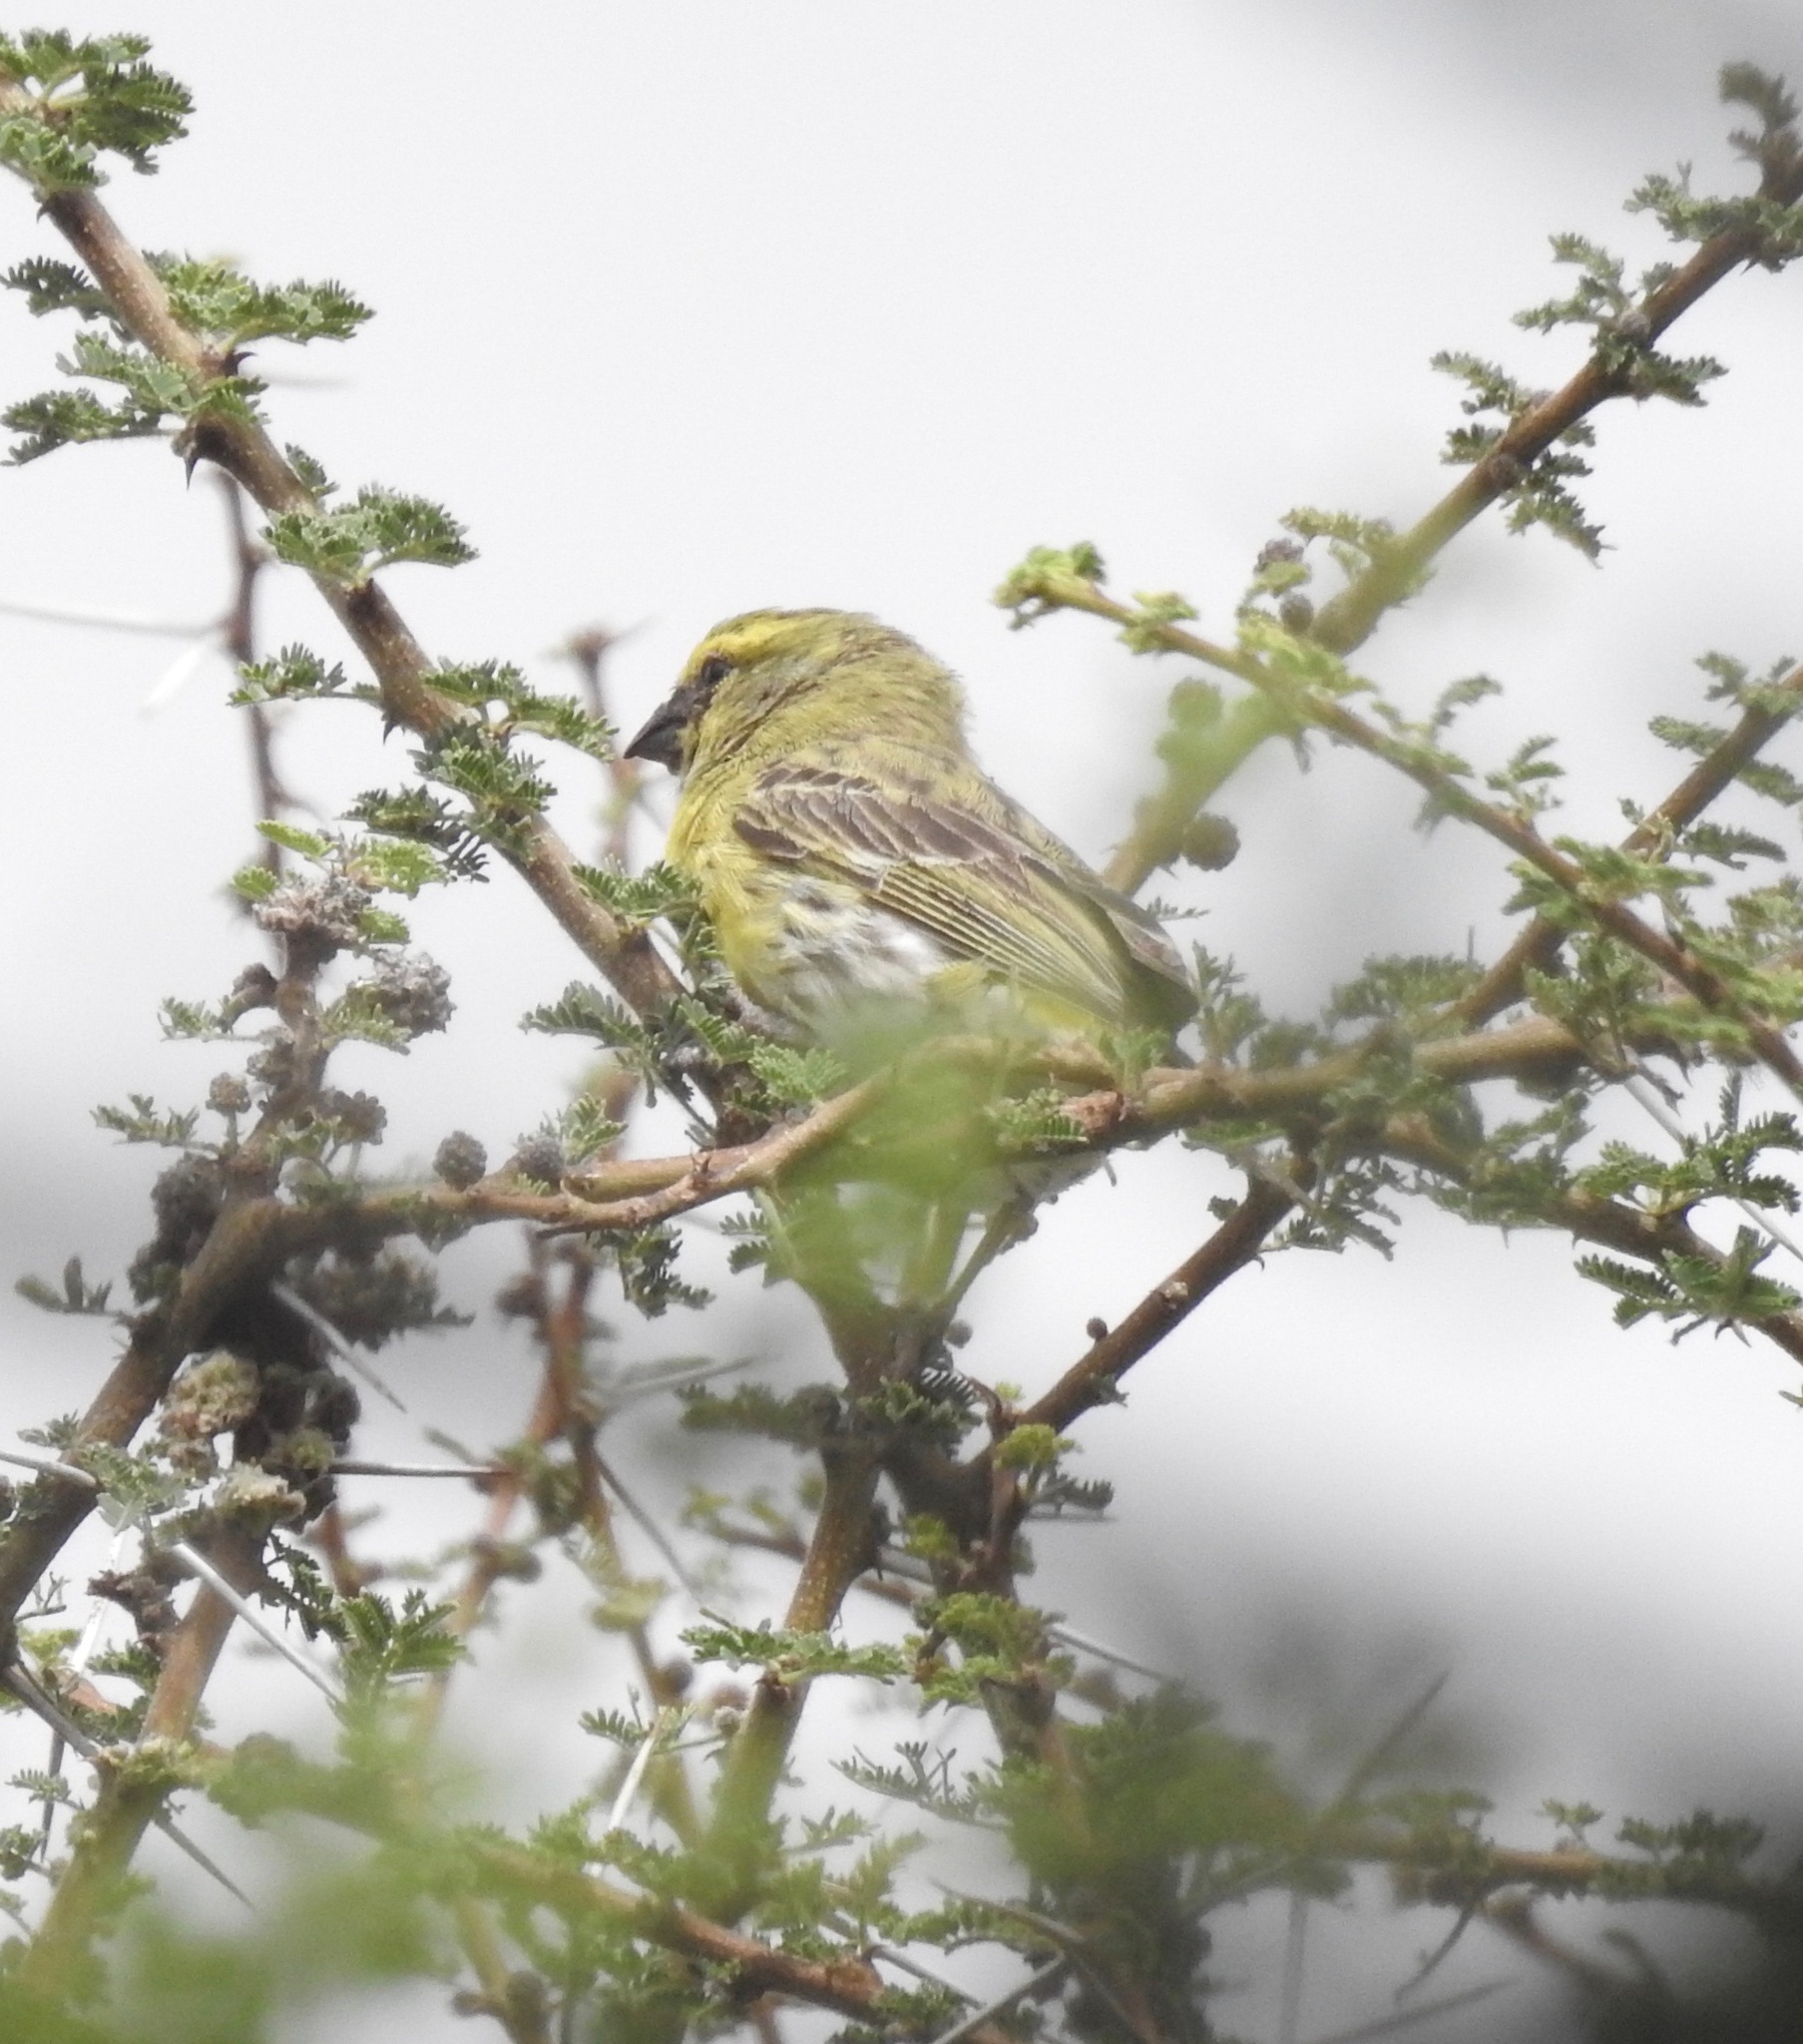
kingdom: Animalia
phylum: Chordata
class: Aves
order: Passeriformes
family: Fringillidae
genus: Crithagra
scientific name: Crithagra dorsostriata
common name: White-bellied canary
